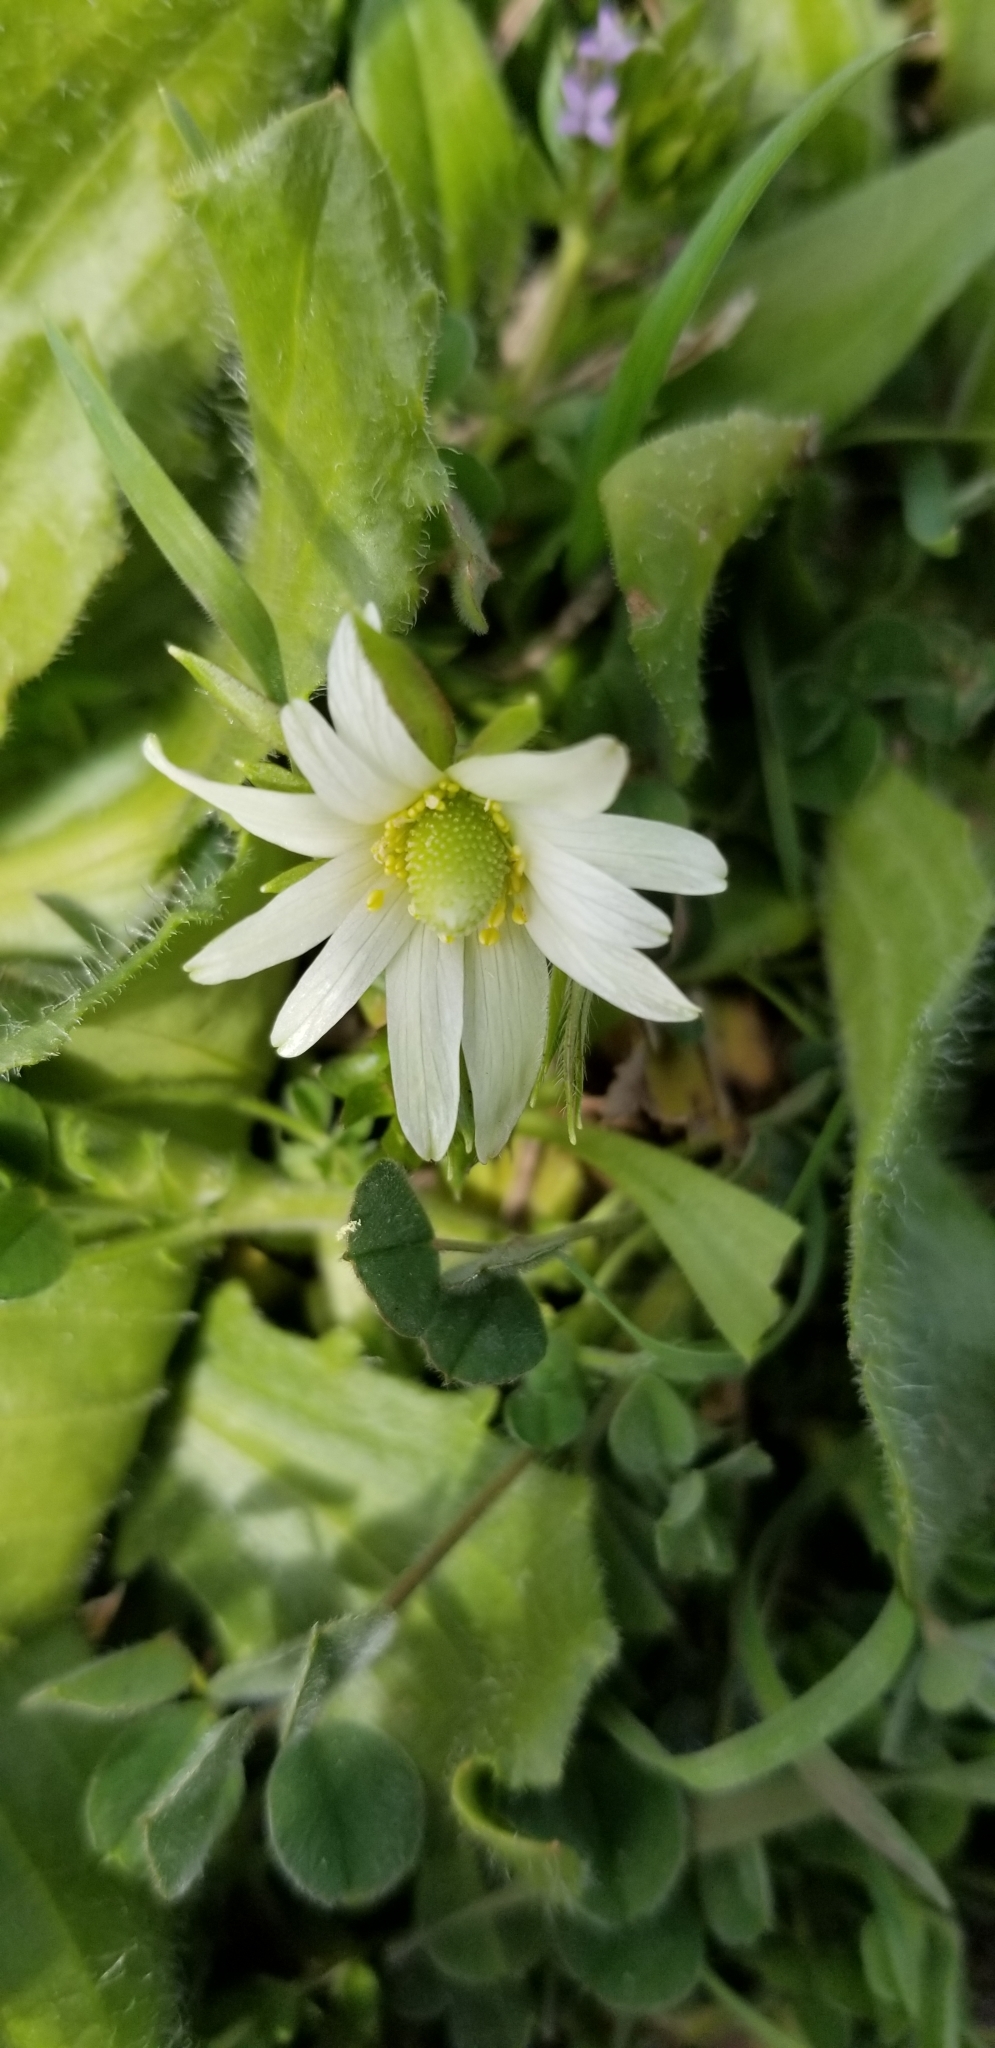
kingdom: Plantae
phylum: Tracheophyta
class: Magnoliopsida
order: Ranunculales
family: Ranunculaceae
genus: Anemone
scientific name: Anemone berlandieri
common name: Ten-petal anemone
